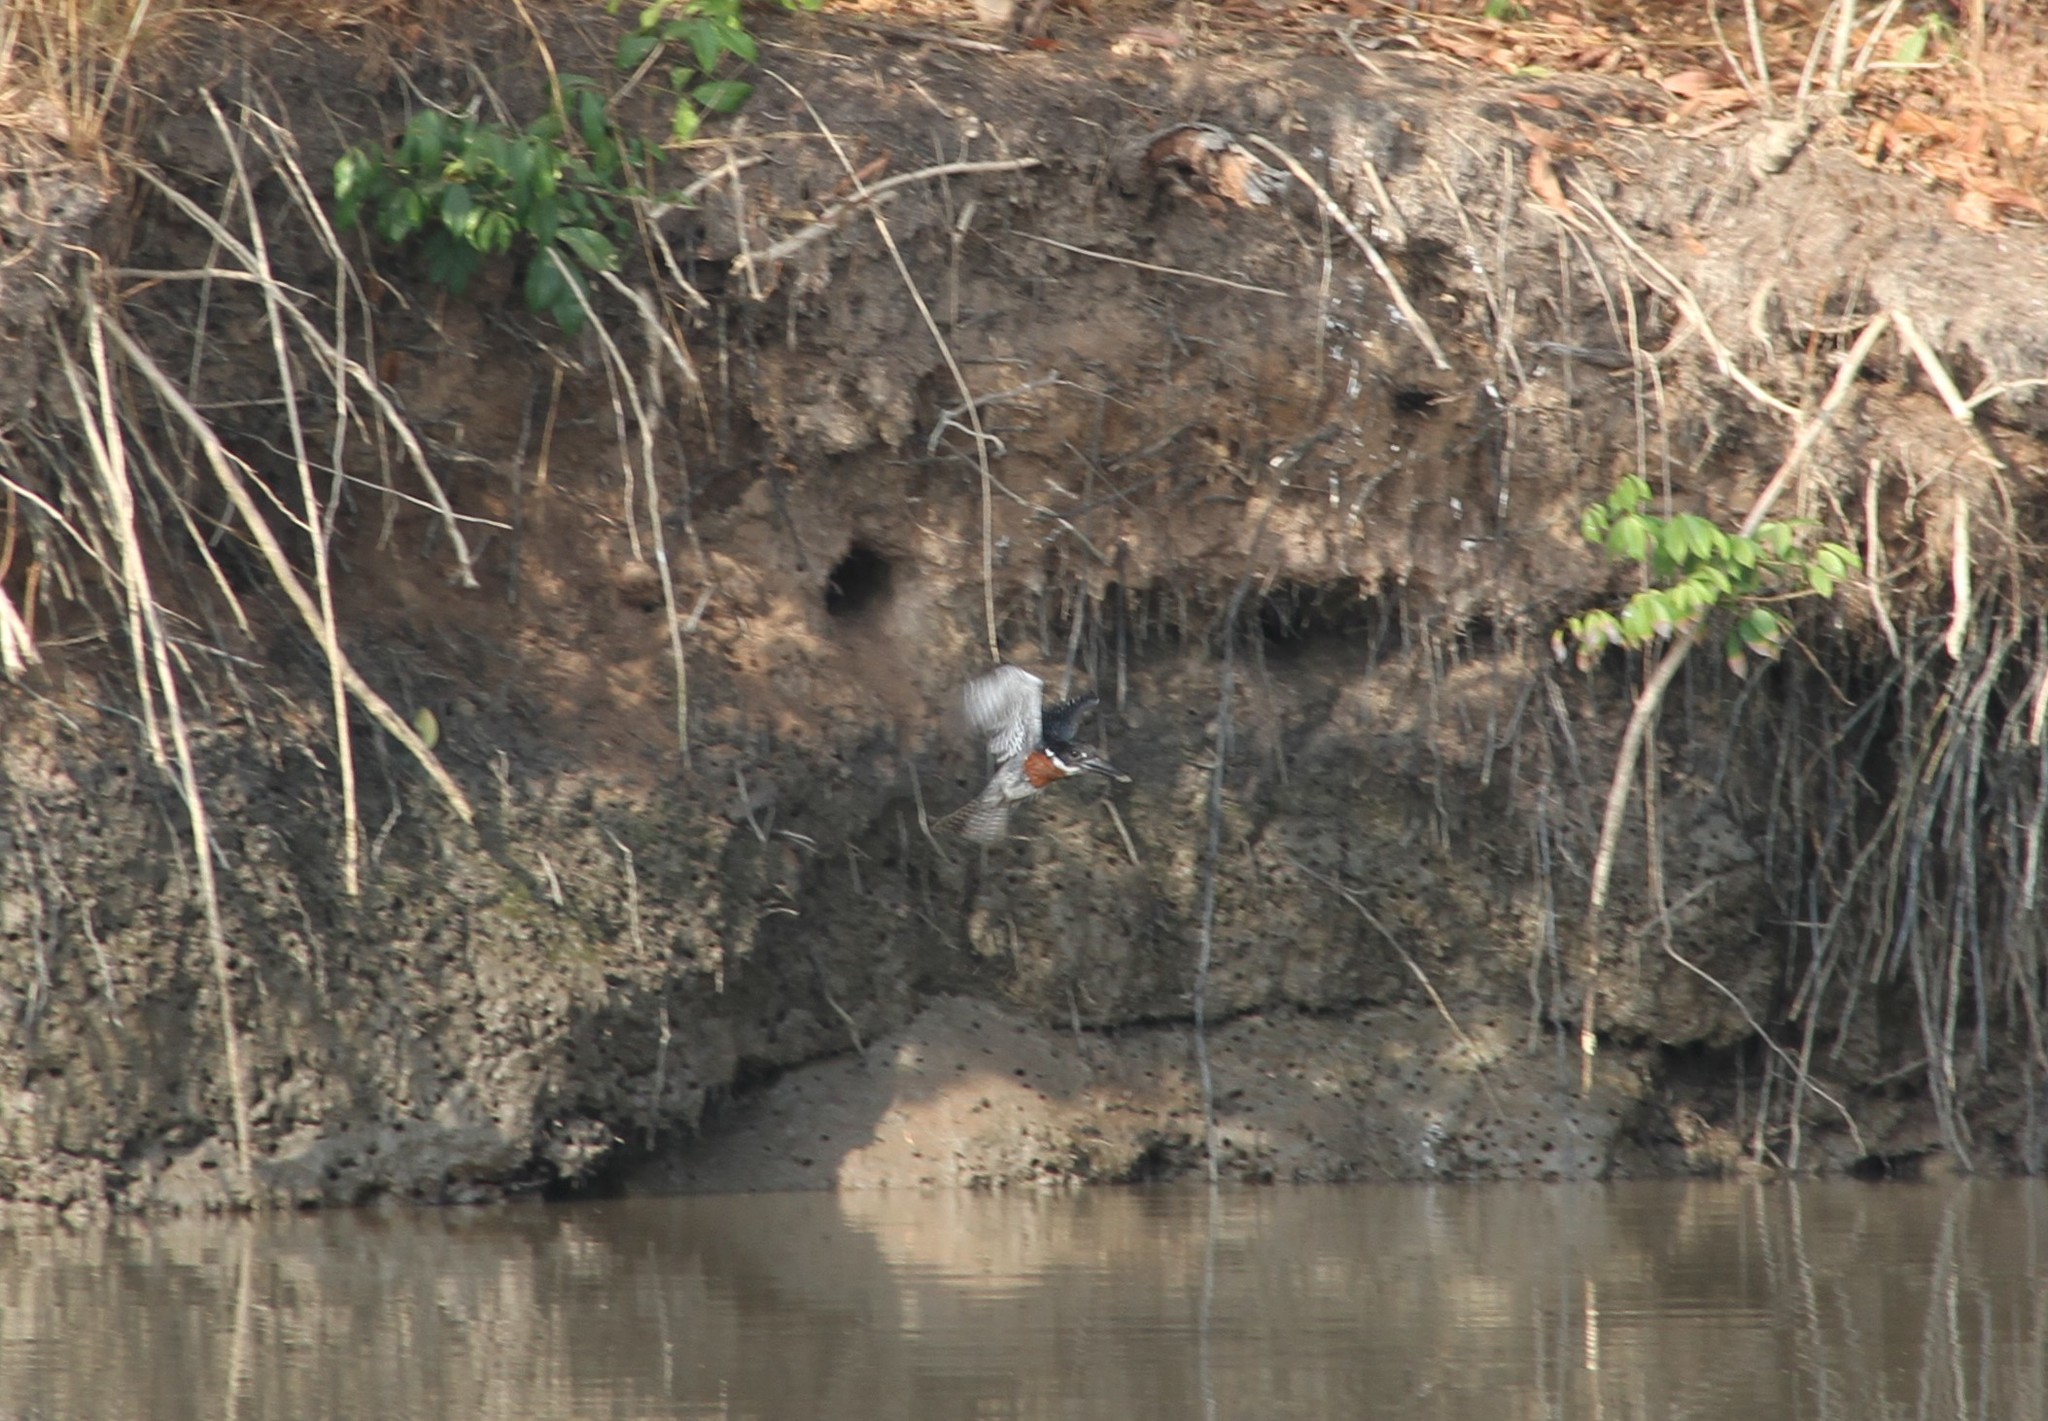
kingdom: Animalia
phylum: Chordata
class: Aves
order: Coraciiformes
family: Alcedinidae
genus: Megaceryle
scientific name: Megaceryle maxima
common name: Giant kingfisher
